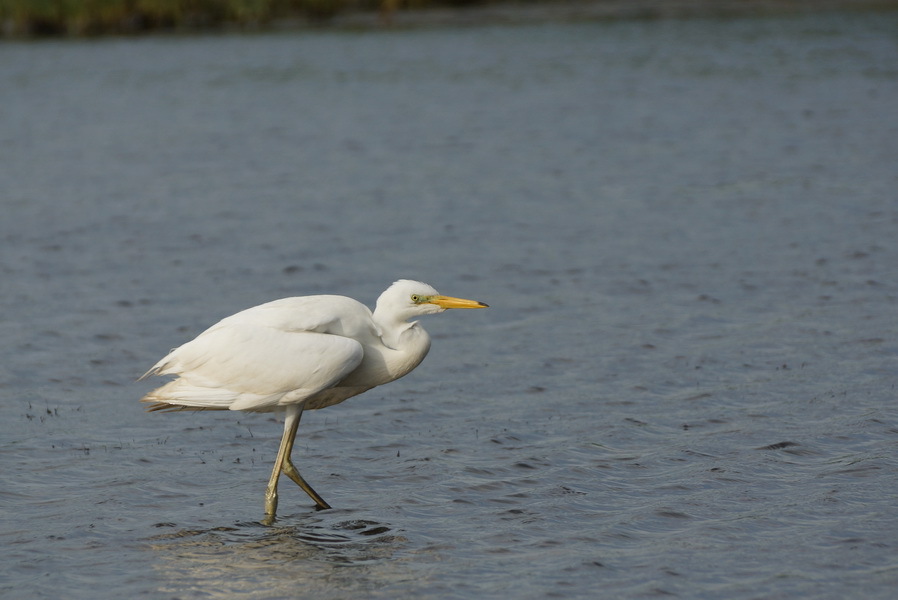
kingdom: Animalia
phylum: Chordata
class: Aves
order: Pelecaniformes
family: Ardeidae
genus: Ardea
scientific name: Ardea alba
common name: Great egret
